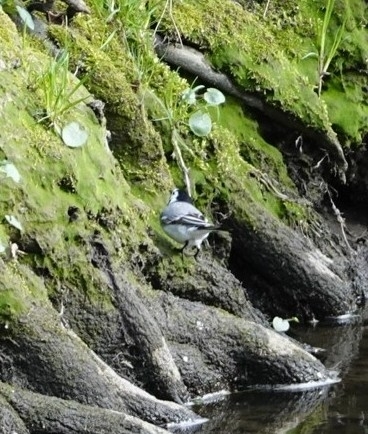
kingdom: Animalia
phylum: Chordata
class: Aves
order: Passeriformes
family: Motacillidae
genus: Motacilla
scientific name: Motacilla alba
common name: White wagtail
